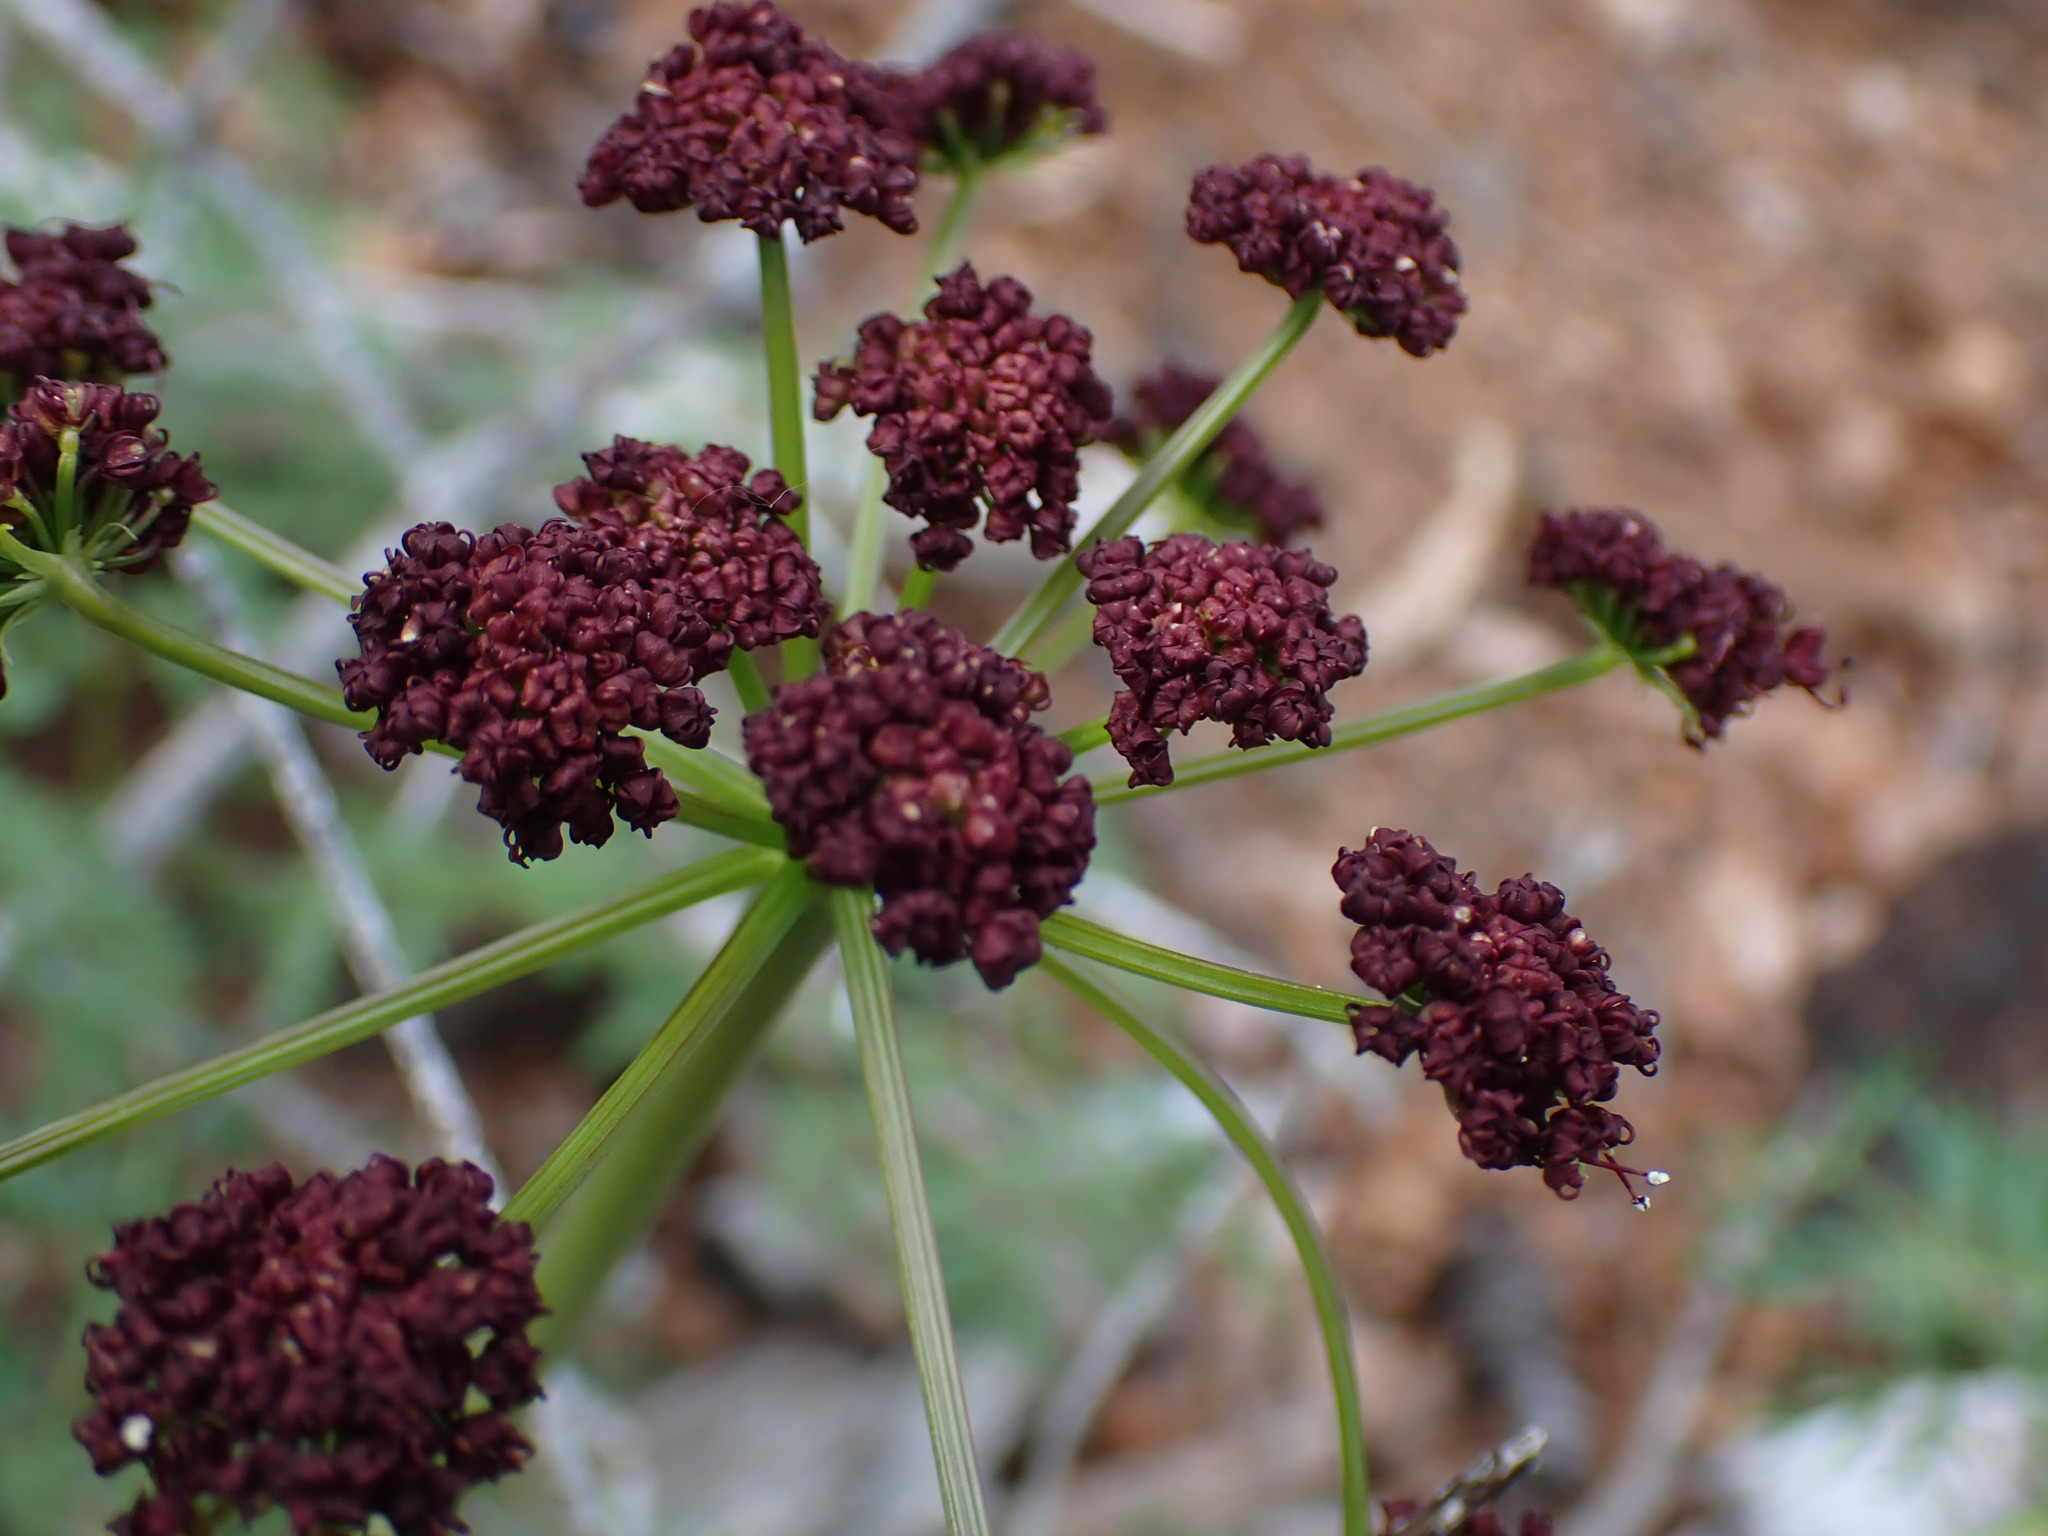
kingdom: Plantae
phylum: Tracheophyta
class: Magnoliopsida
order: Apiales
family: Apiaceae
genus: Lomatium
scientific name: Lomatium multifidum
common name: Carrot-leaved biscuitroot
